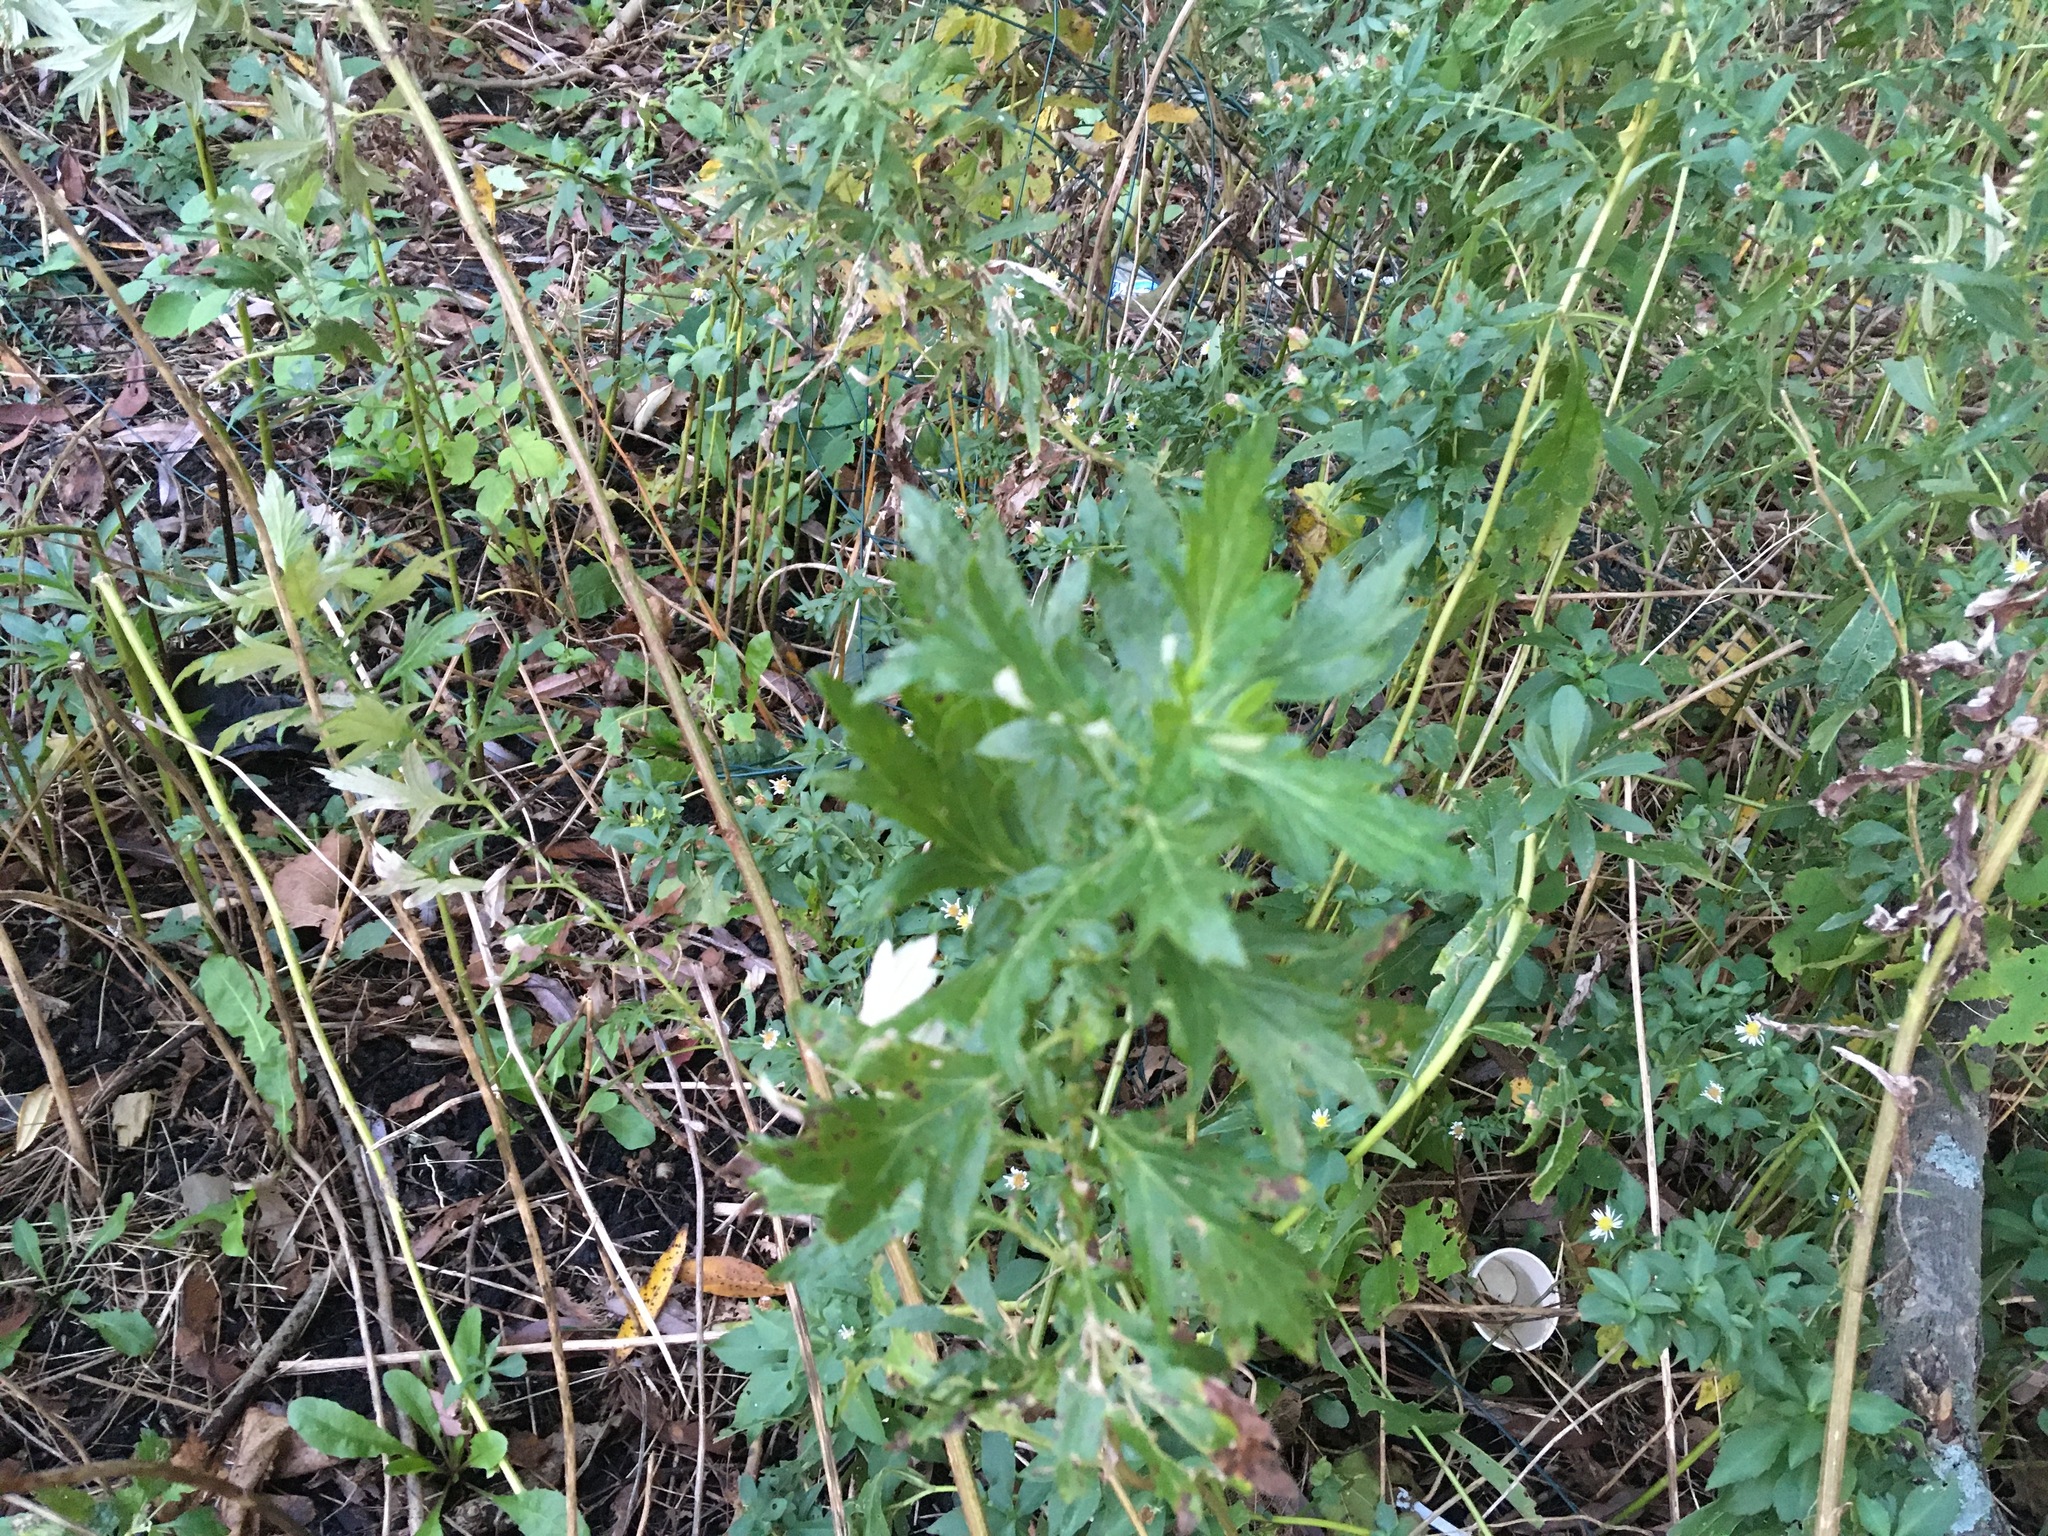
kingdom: Plantae
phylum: Tracheophyta
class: Magnoliopsida
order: Asterales
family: Asteraceae
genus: Artemisia
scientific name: Artemisia vulgaris
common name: Mugwort
